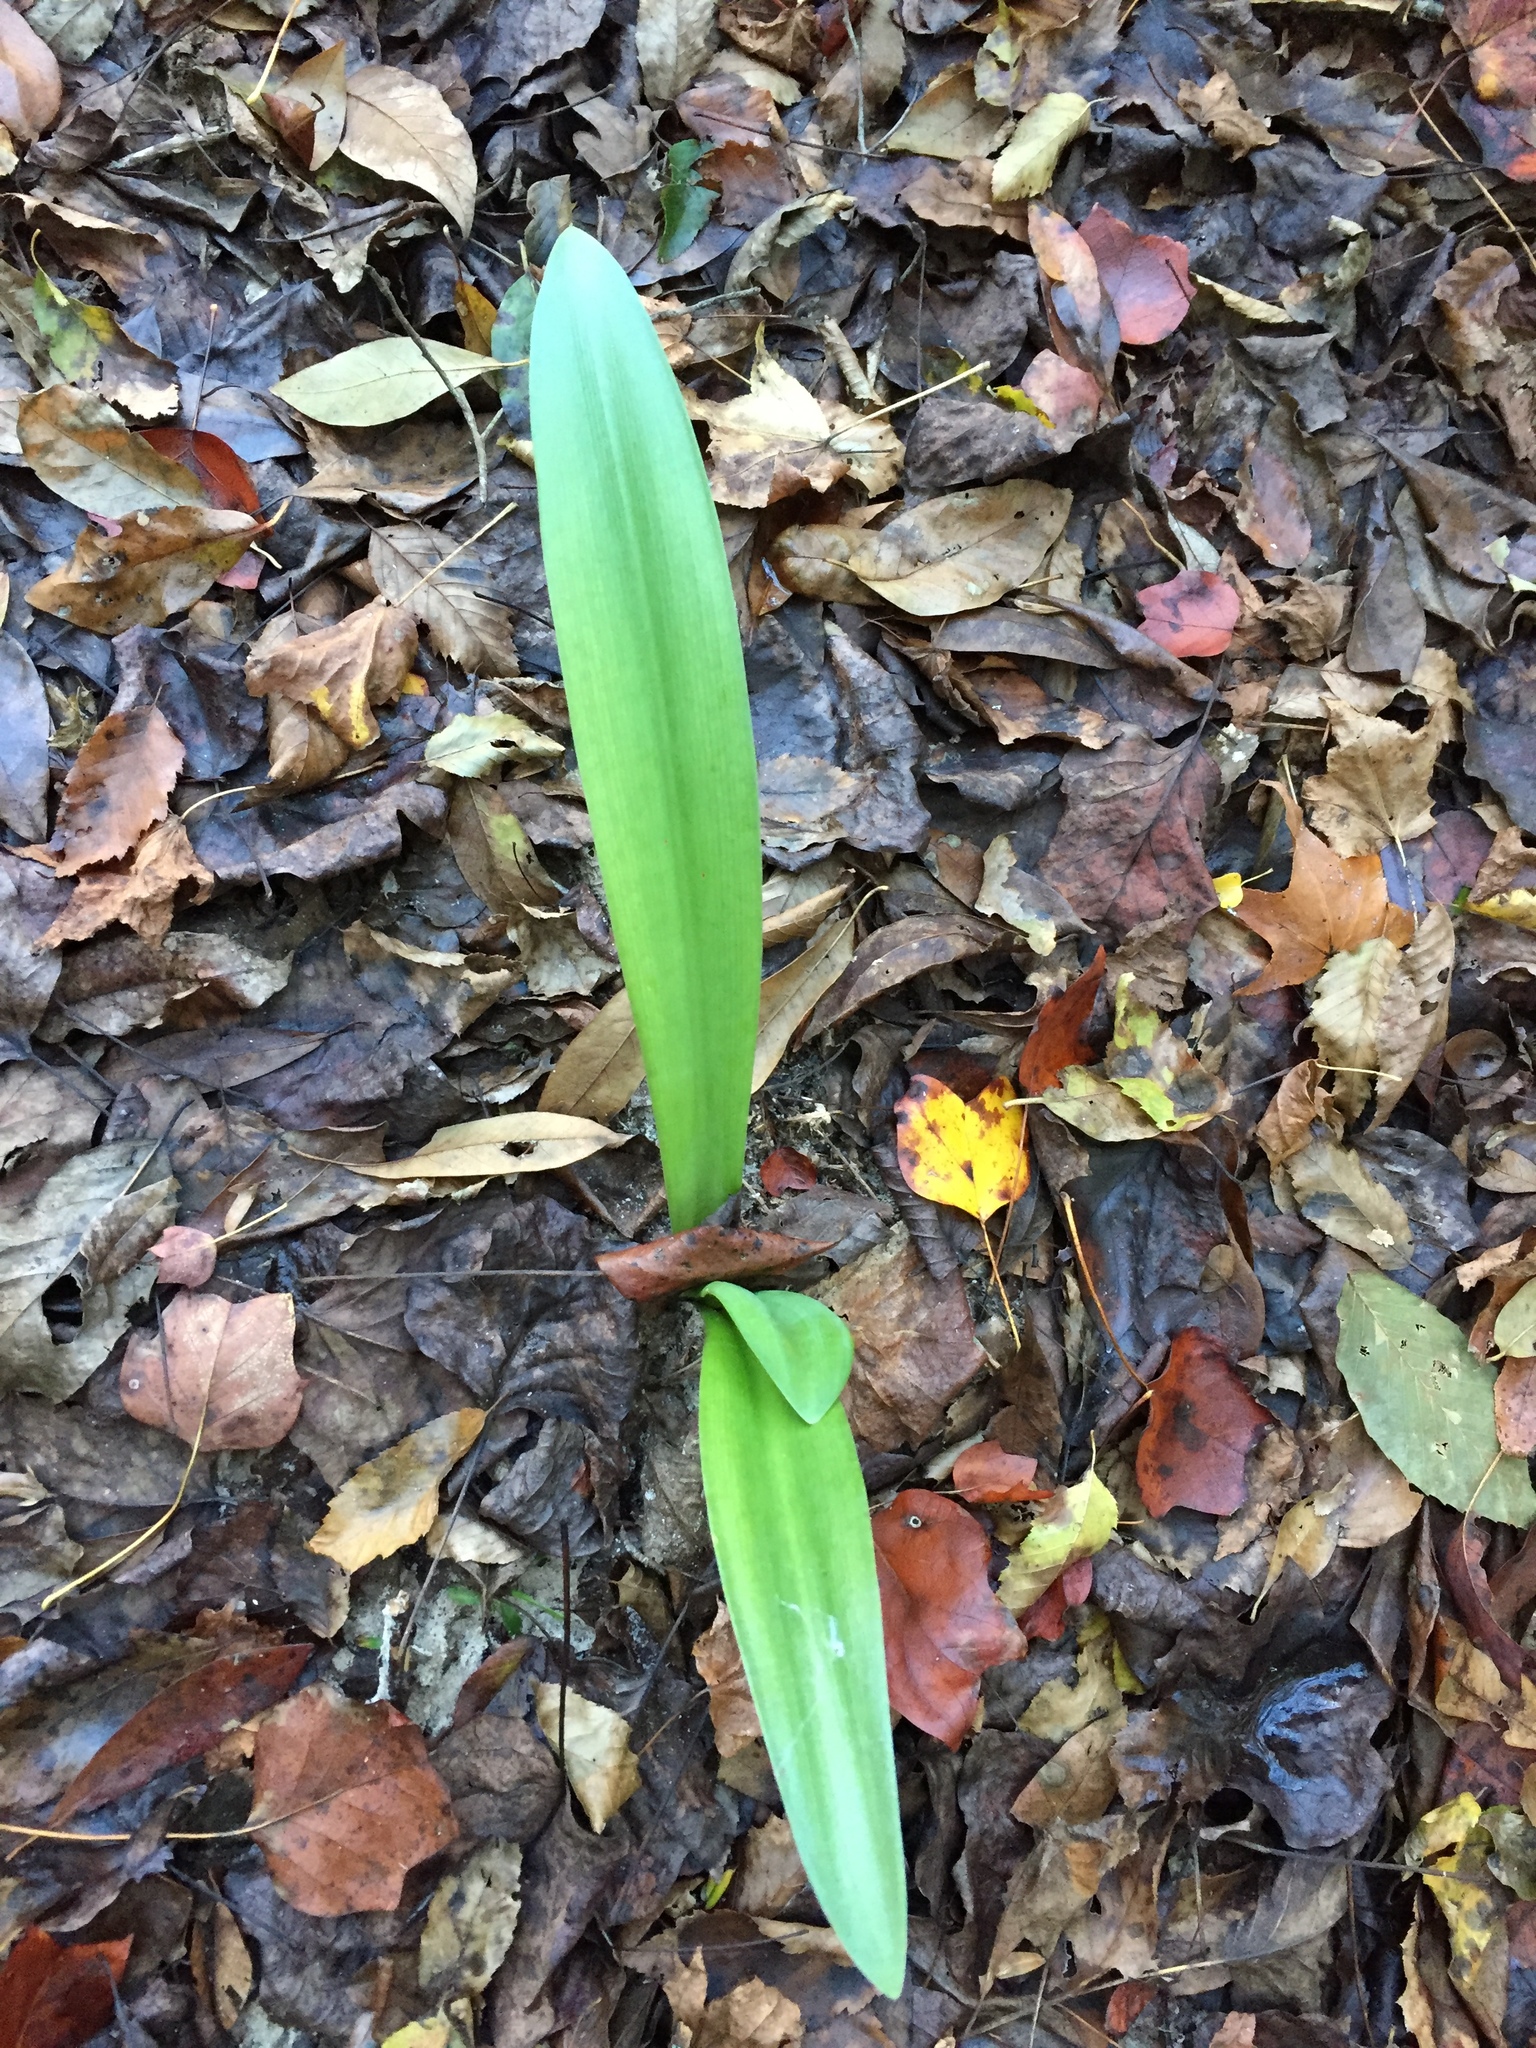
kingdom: Plantae
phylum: Tracheophyta
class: Liliopsida
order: Asparagales
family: Amaryllidaceae
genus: Hymenocallis
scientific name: Hymenocallis occidentalis
